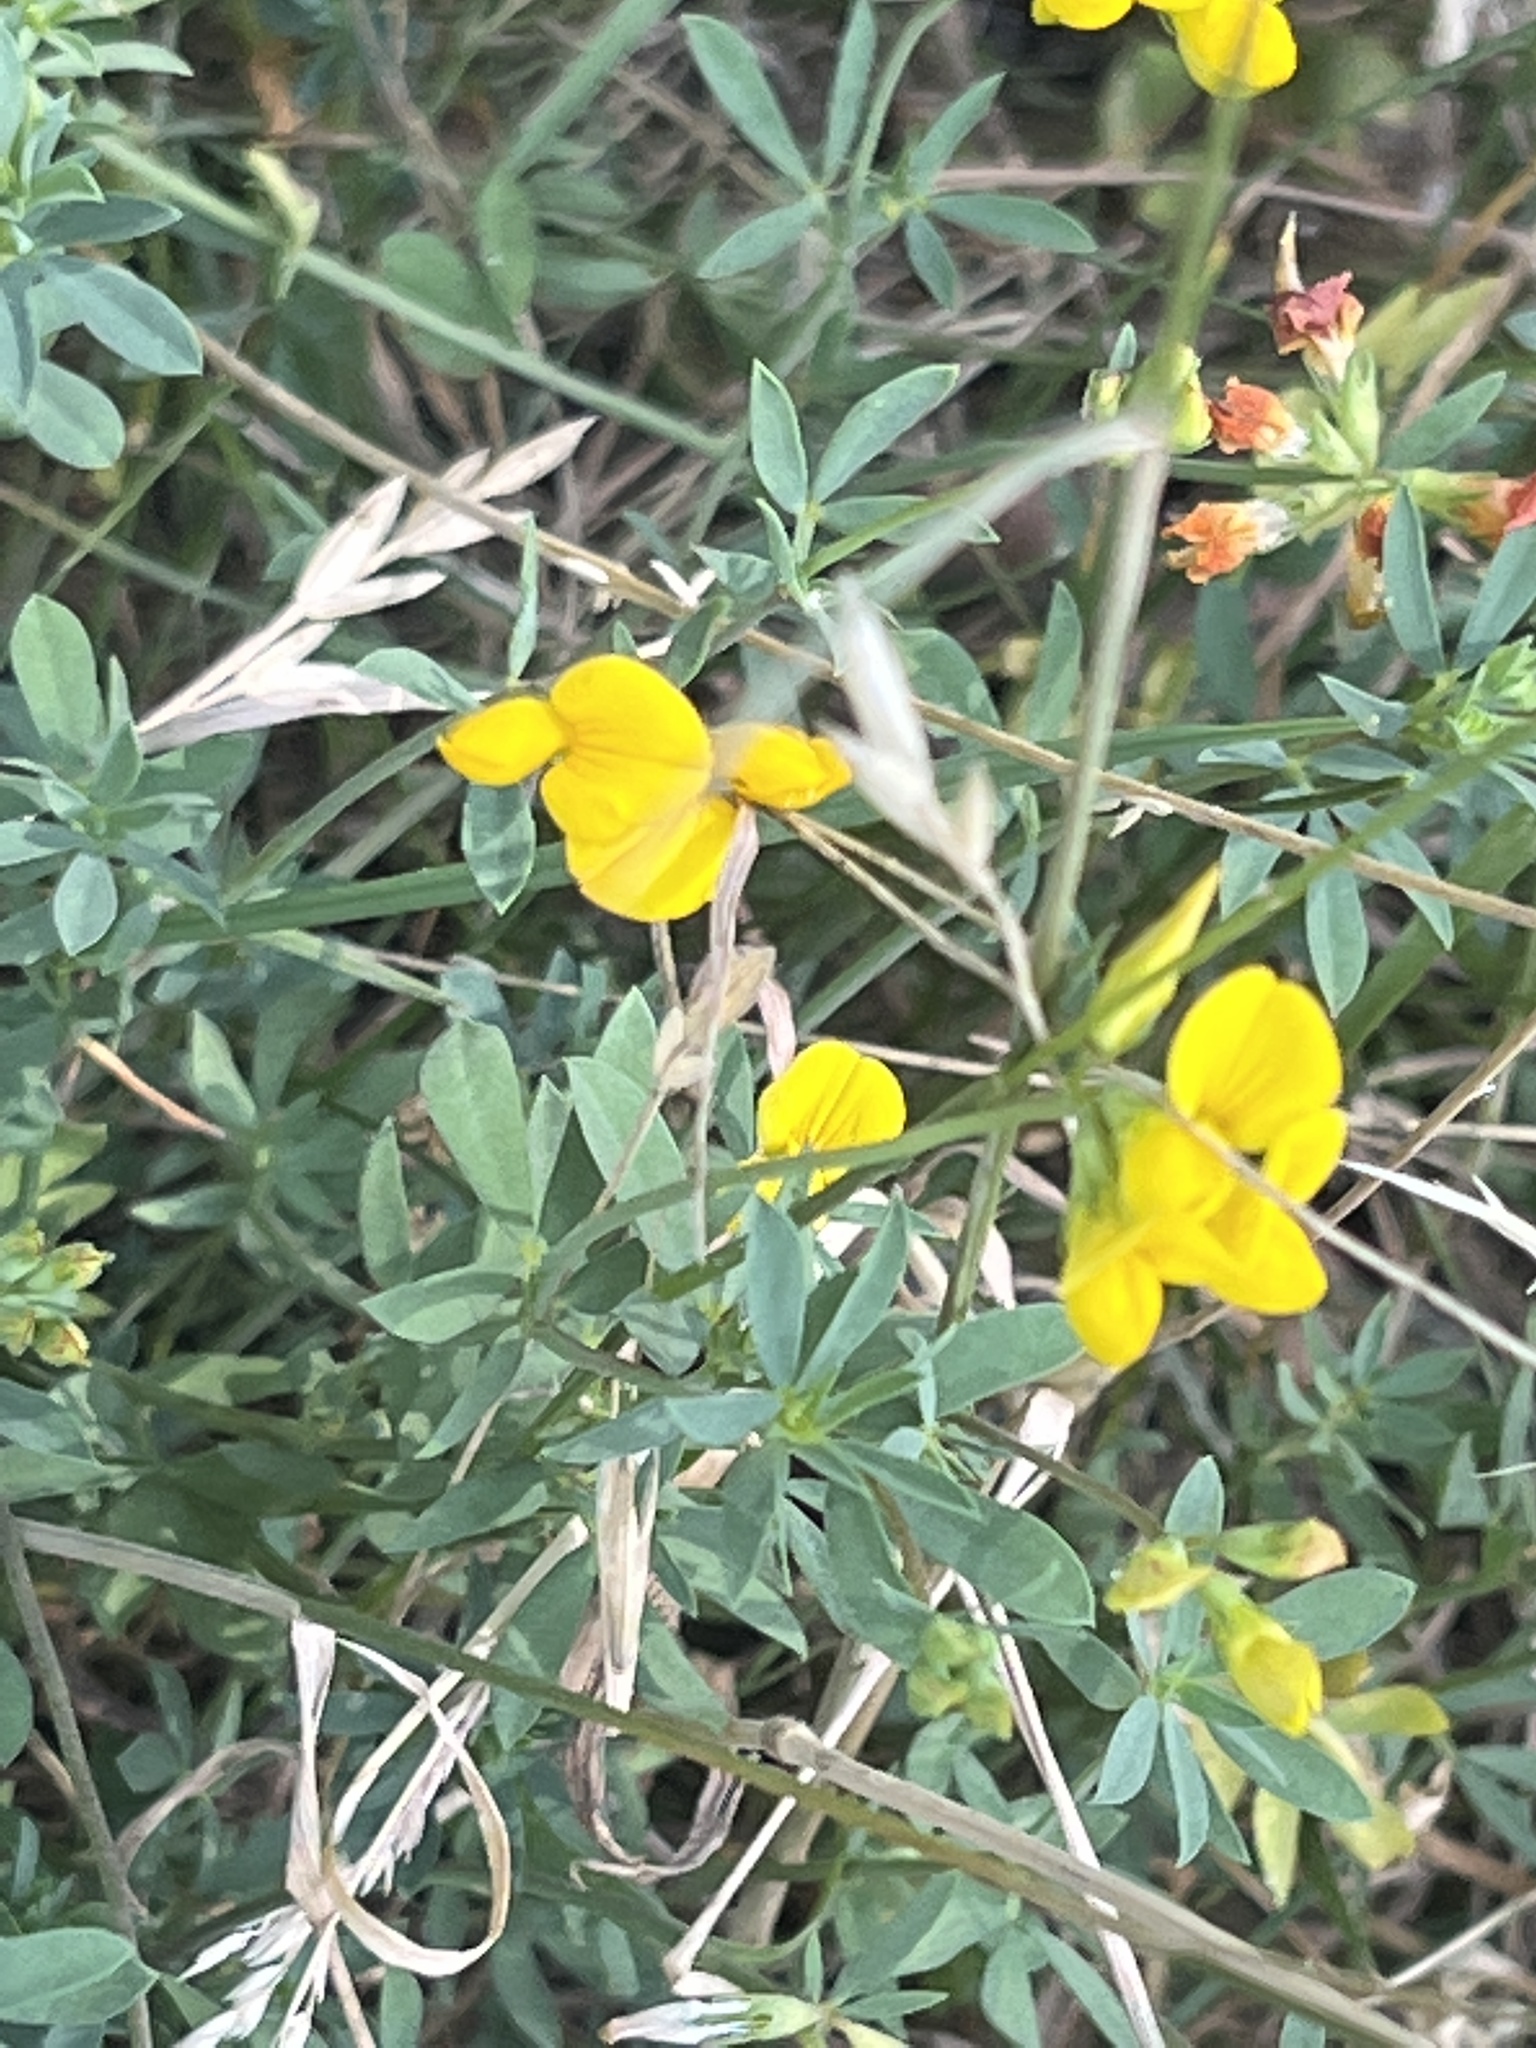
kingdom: Plantae
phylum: Tracheophyta
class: Magnoliopsida
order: Fabales
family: Fabaceae
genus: Lotus
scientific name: Lotus corniculatus
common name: Common bird's-foot-trefoil
